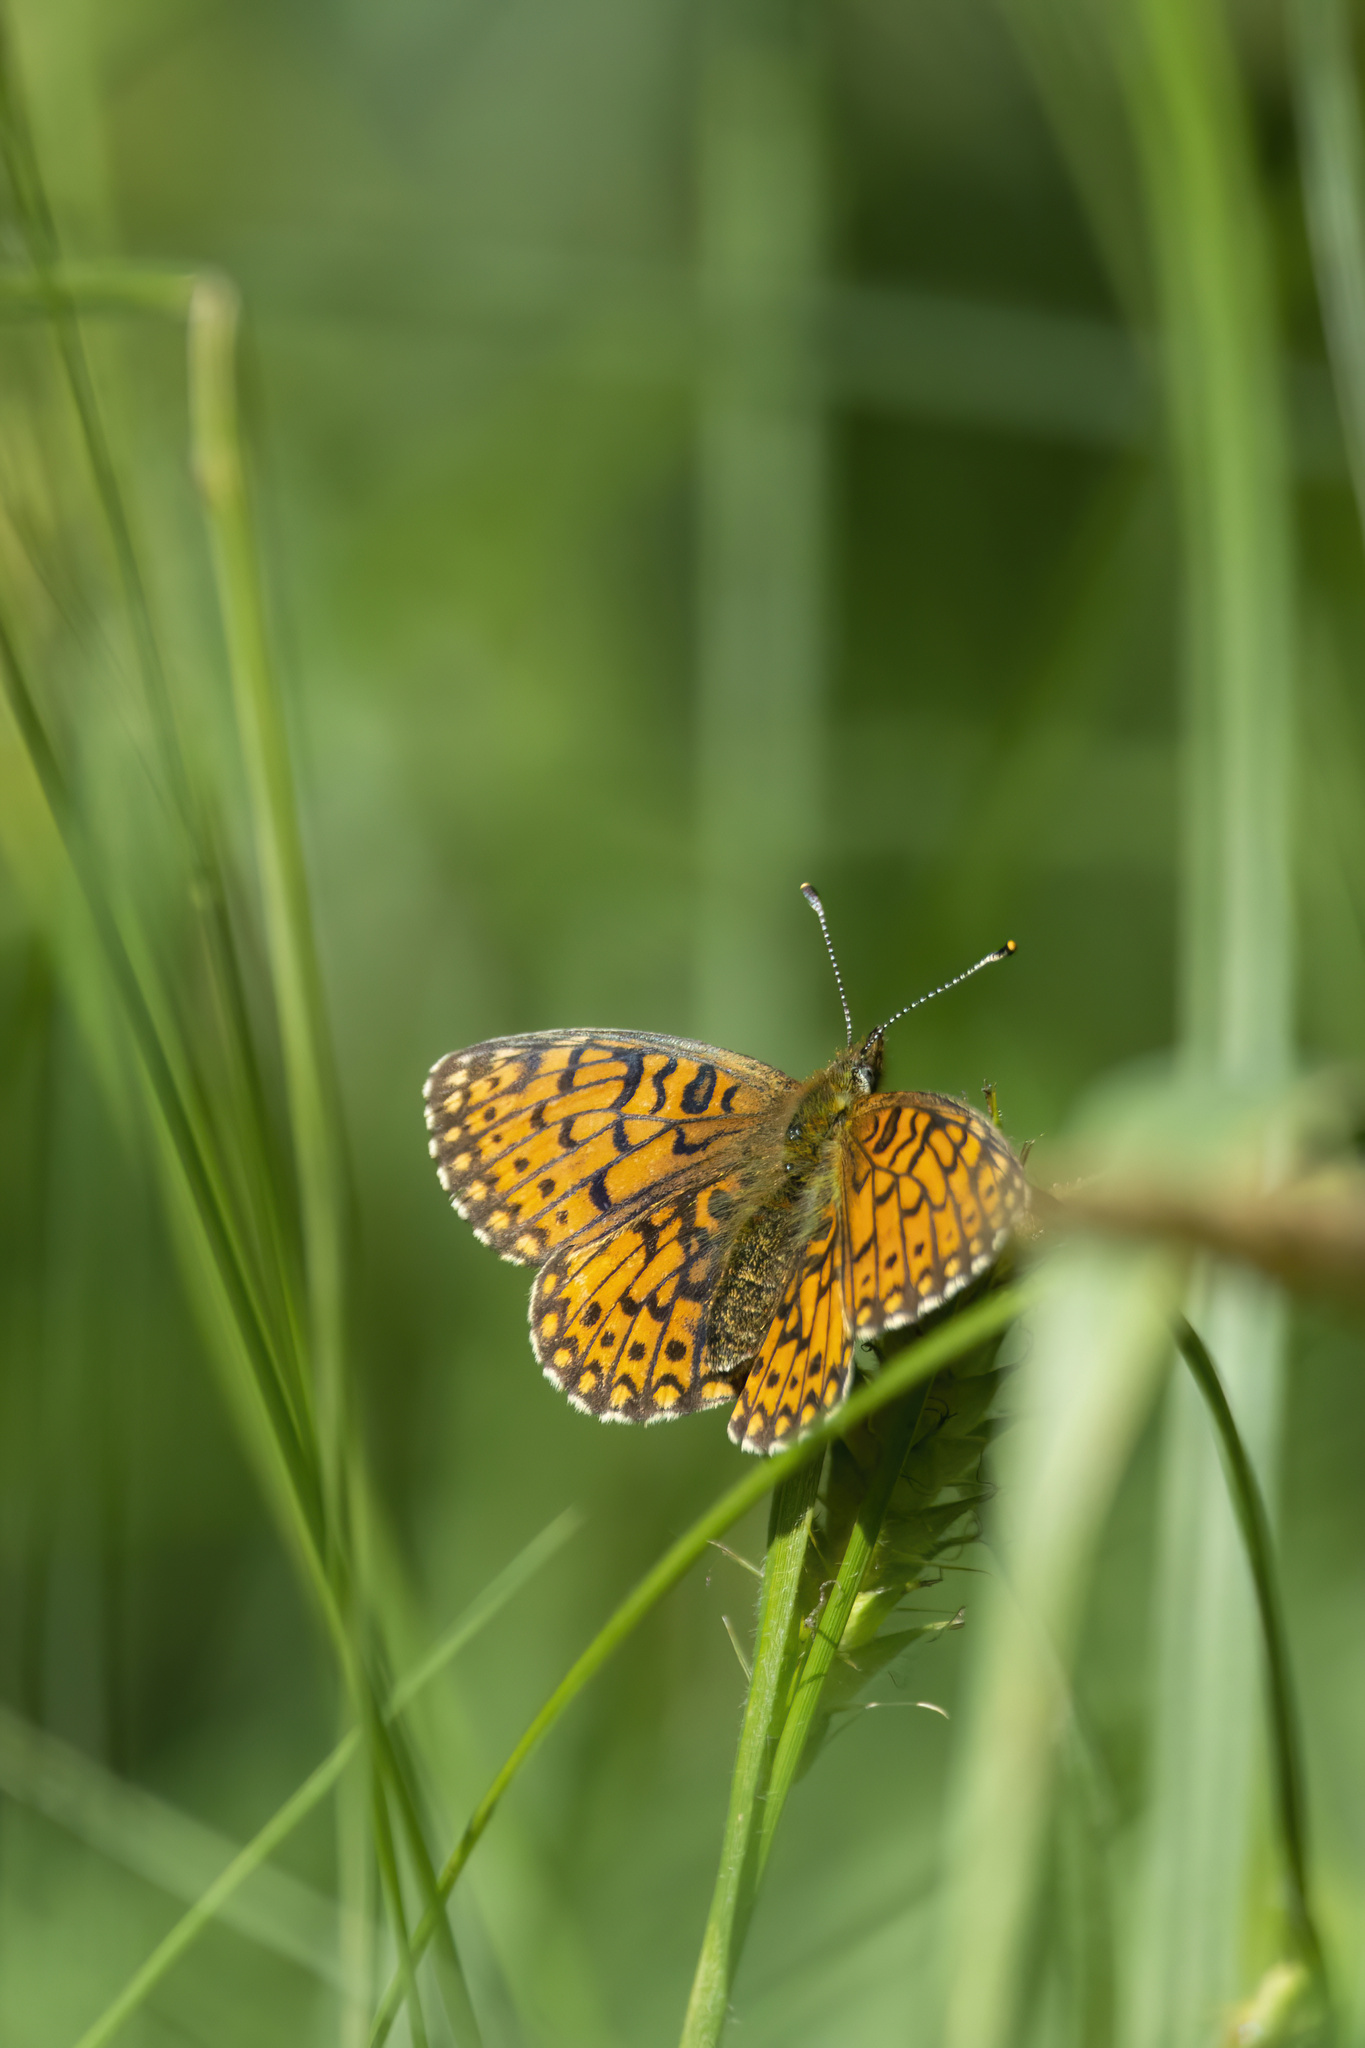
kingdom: Animalia
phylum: Arthropoda
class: Insecta
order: Lepidoptera
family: Nymphalidae
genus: Boloria
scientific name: Boloria selene
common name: Small pearl-bordered fritillary
